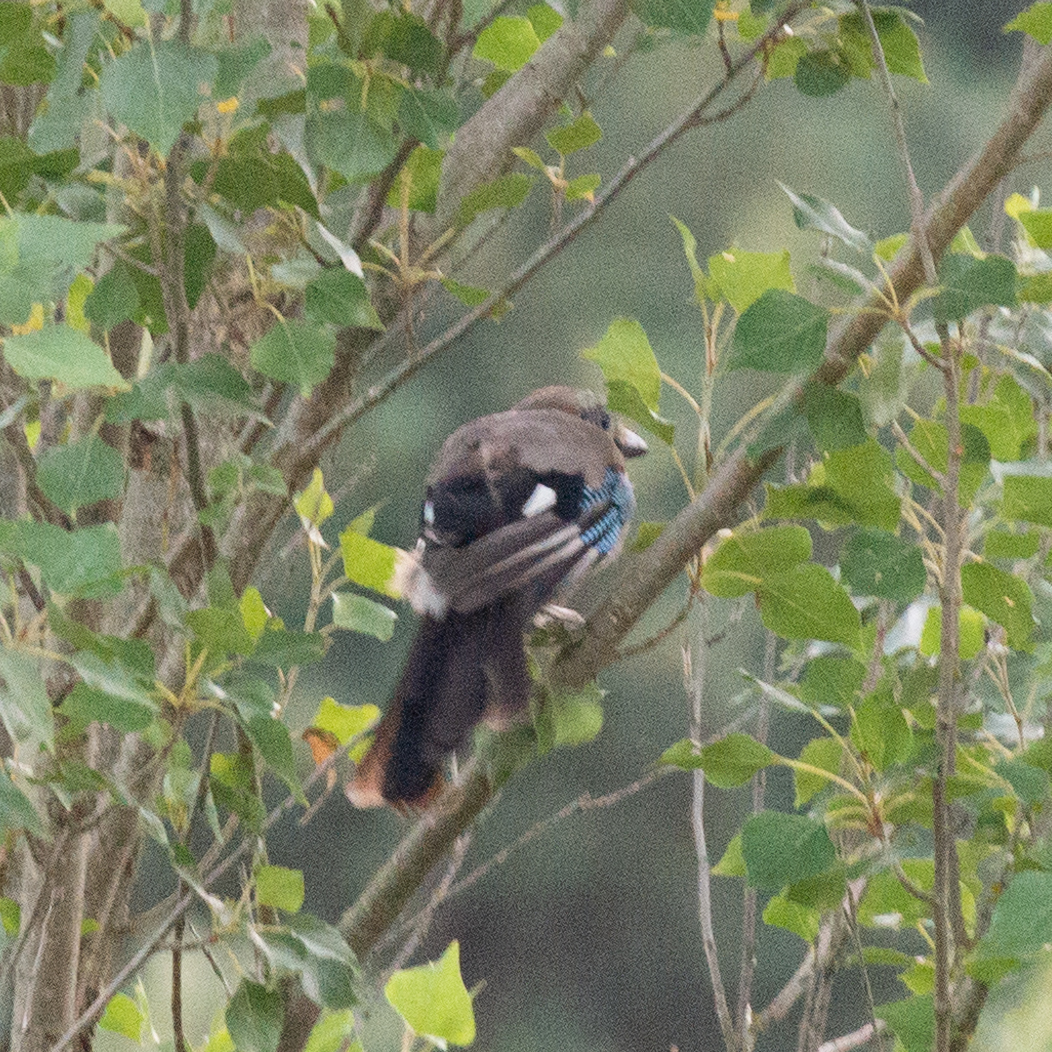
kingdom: Animalia
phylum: Chordata
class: Aves
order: Passeriformes
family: Corvidae
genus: Garrulus
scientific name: Garrulus glandarius
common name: Eurasian jay
